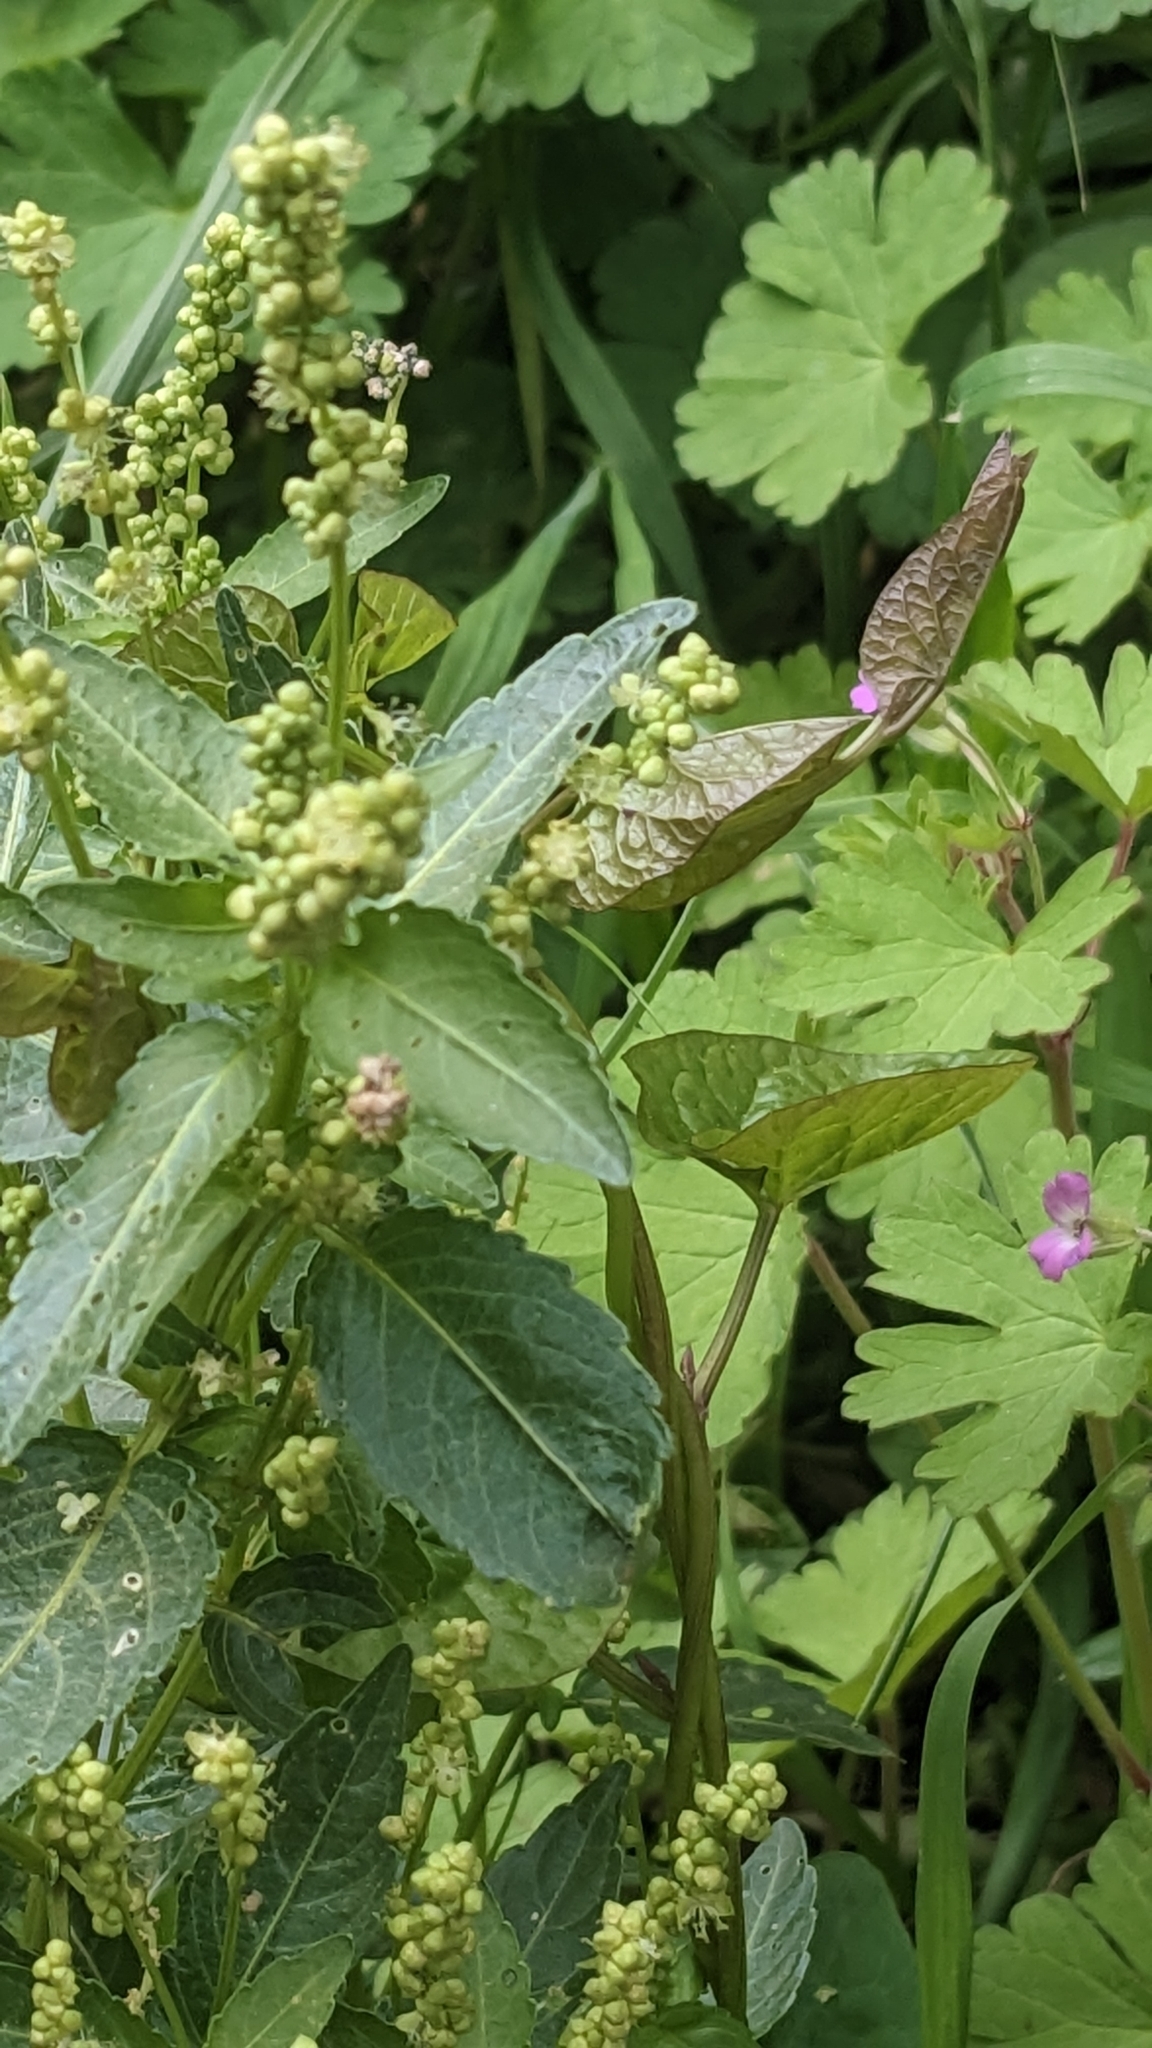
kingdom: Plantae
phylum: Tracheophyta
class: Magnoliopsida
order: Malpighiales
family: Euphorbiaceae
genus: Mercurialis
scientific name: Mercurialis annua
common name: Annual mercury
